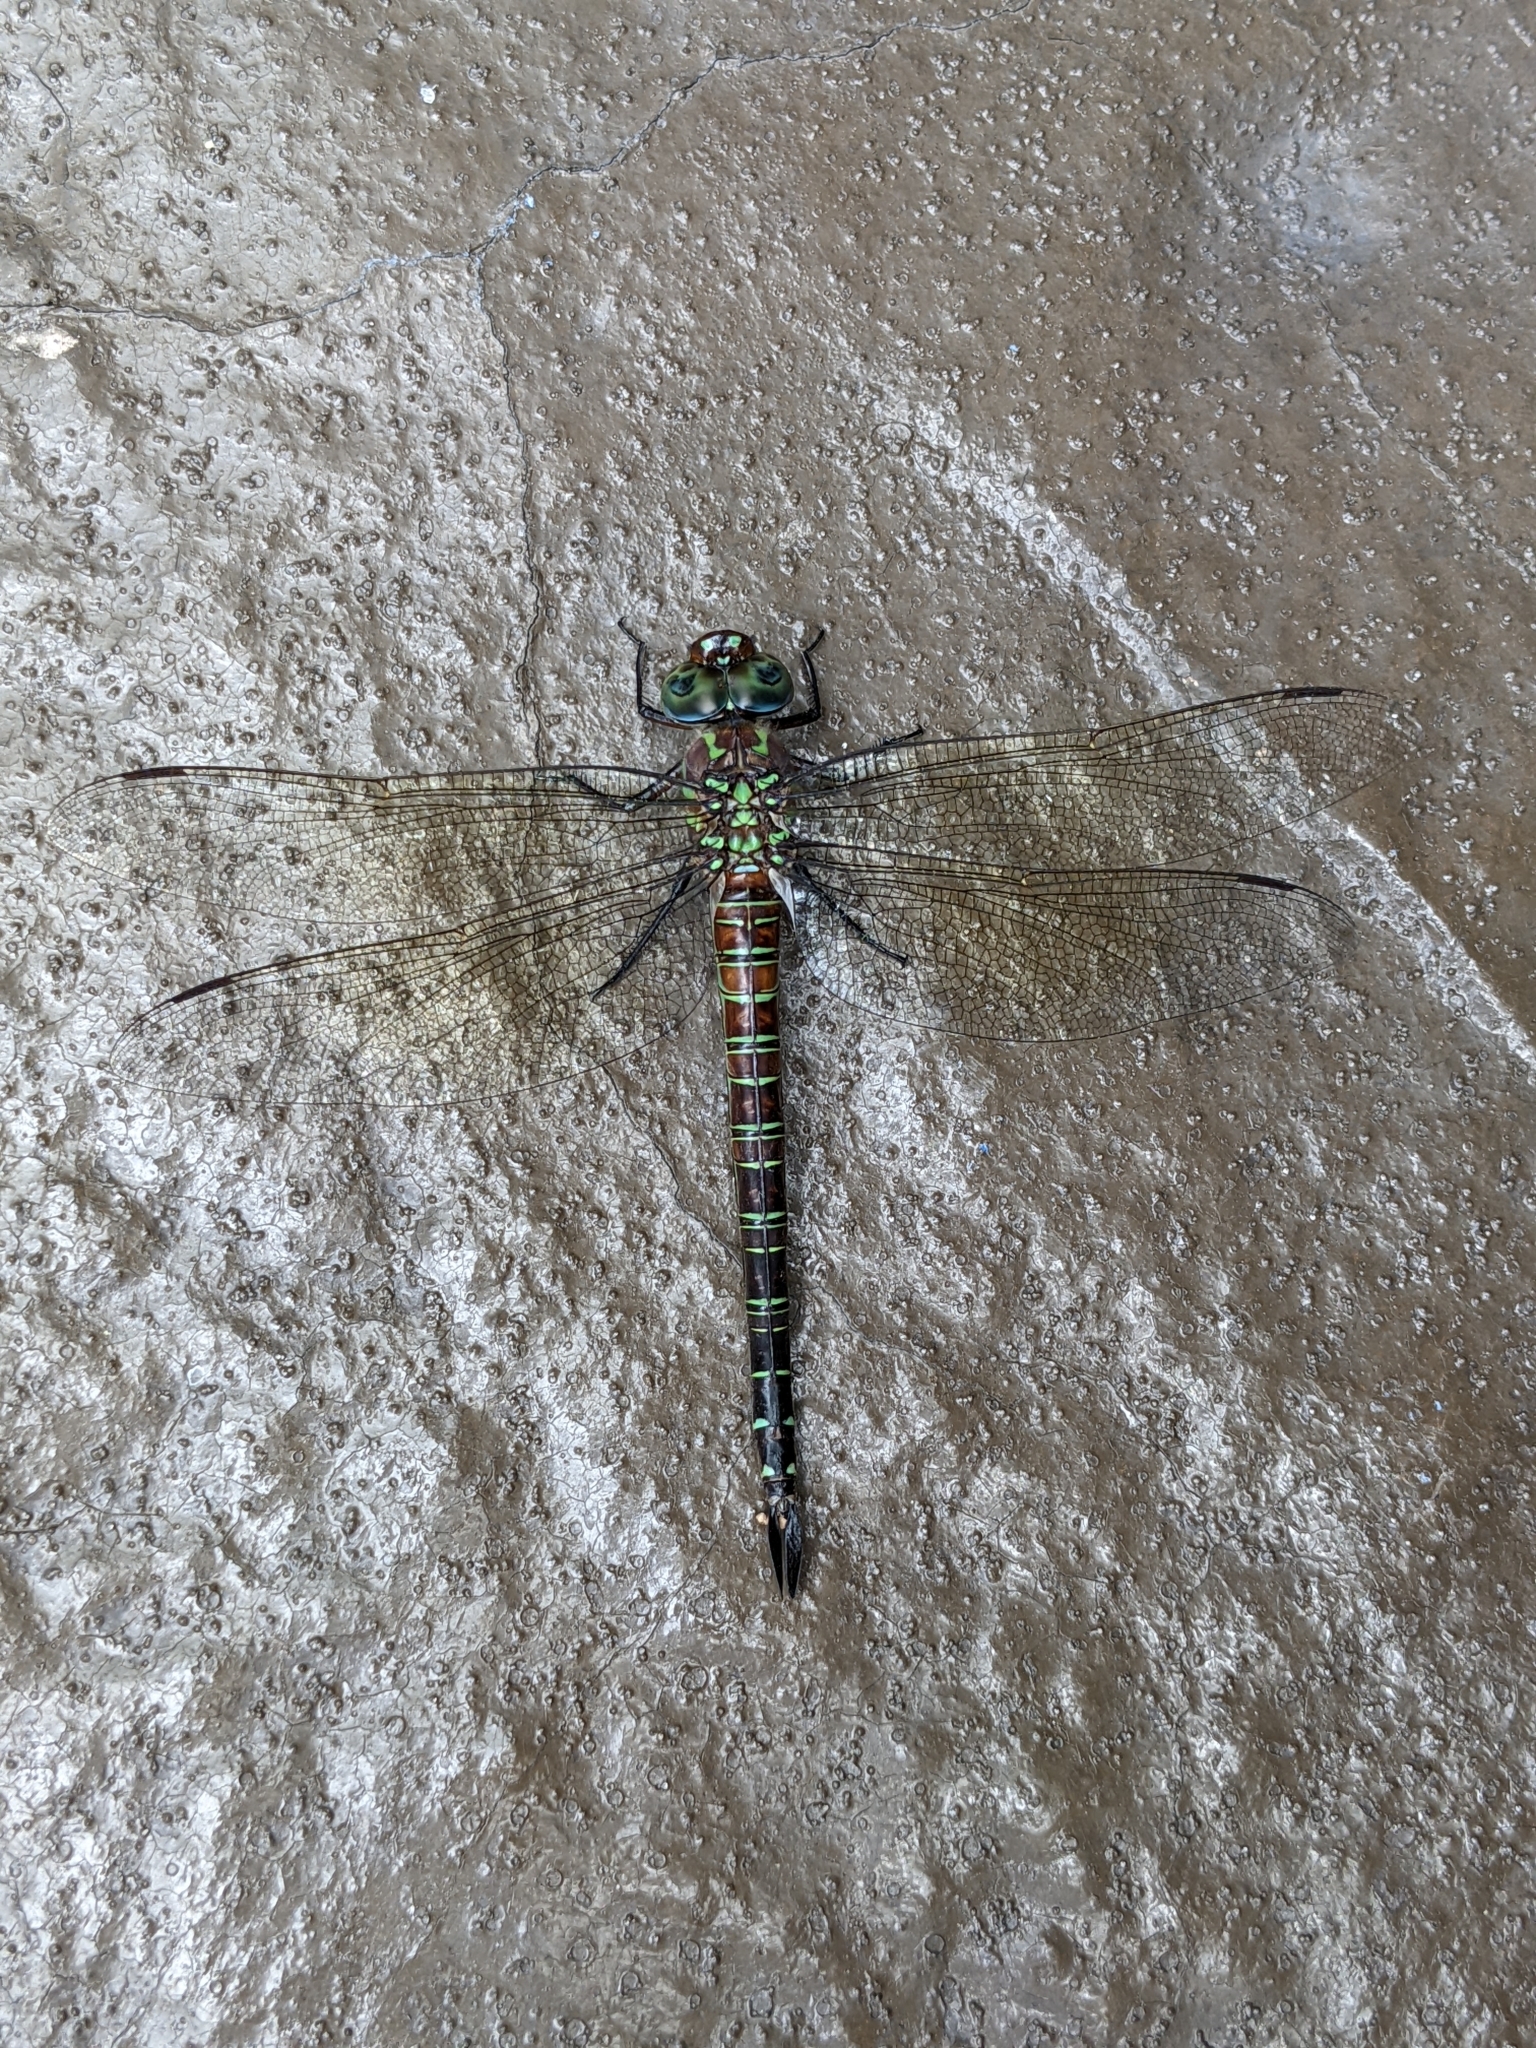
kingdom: Animalia
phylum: Arthropoda
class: Insecta
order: Odonata
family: Aeshnidae
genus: Epiaeschna
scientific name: Epiaeschna heros
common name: Swamp darner
